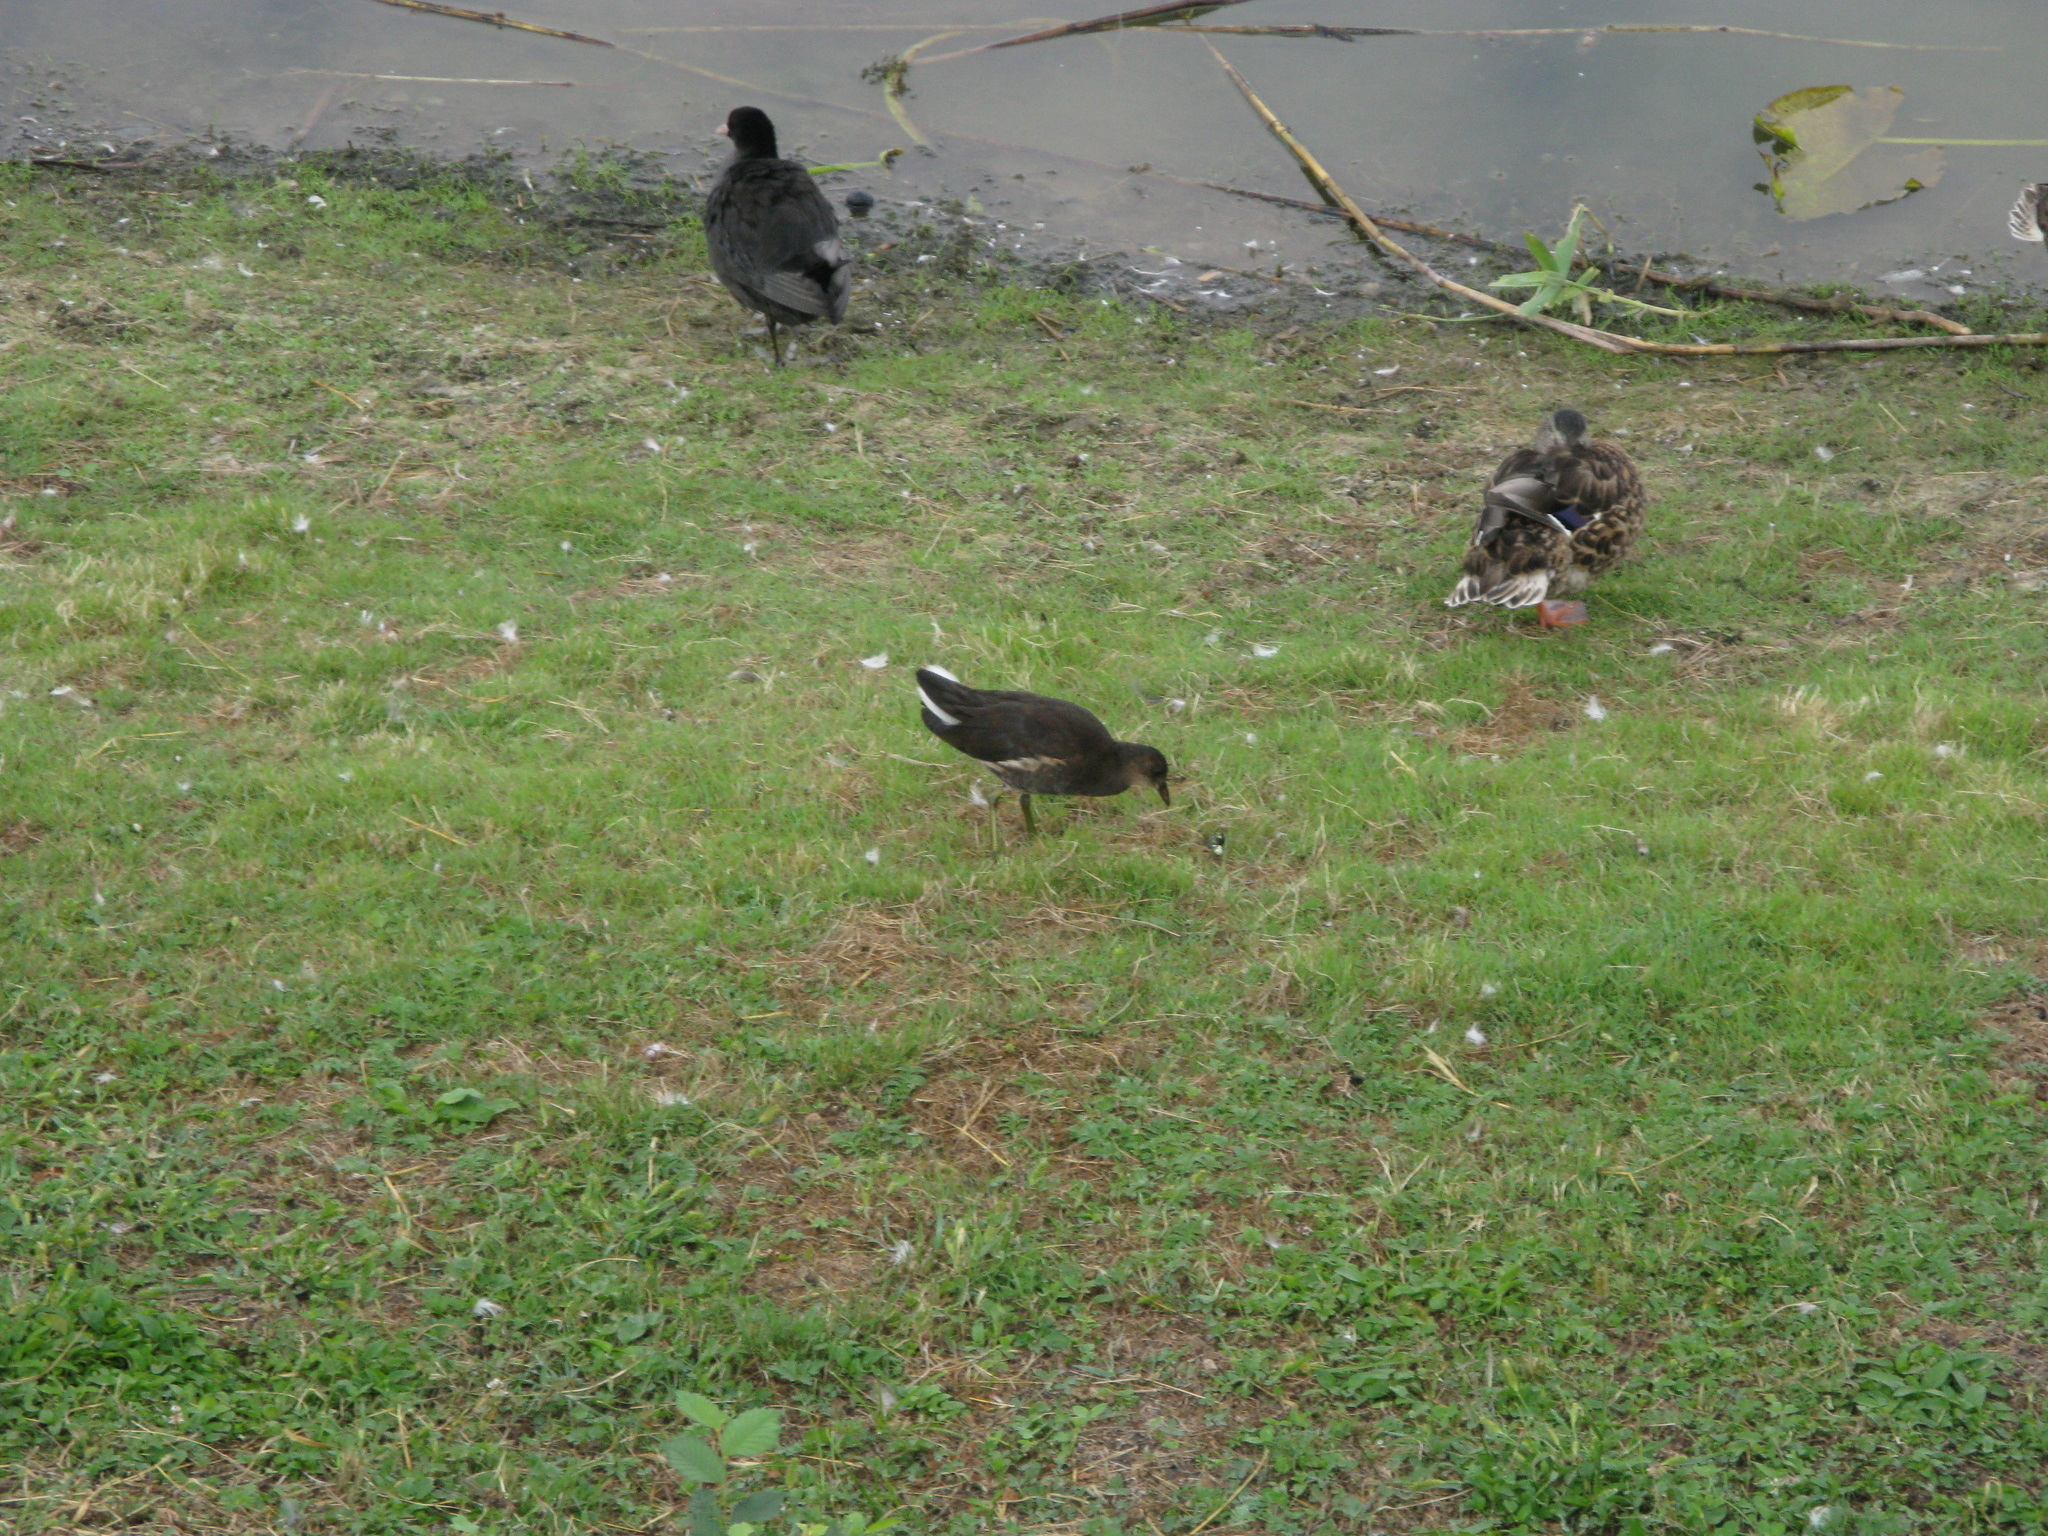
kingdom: Animalia
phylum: Chordata
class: Aves
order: Gruiformes
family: Rallidae
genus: Gallinula
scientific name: Gallinula chloropus
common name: Common moorhen
